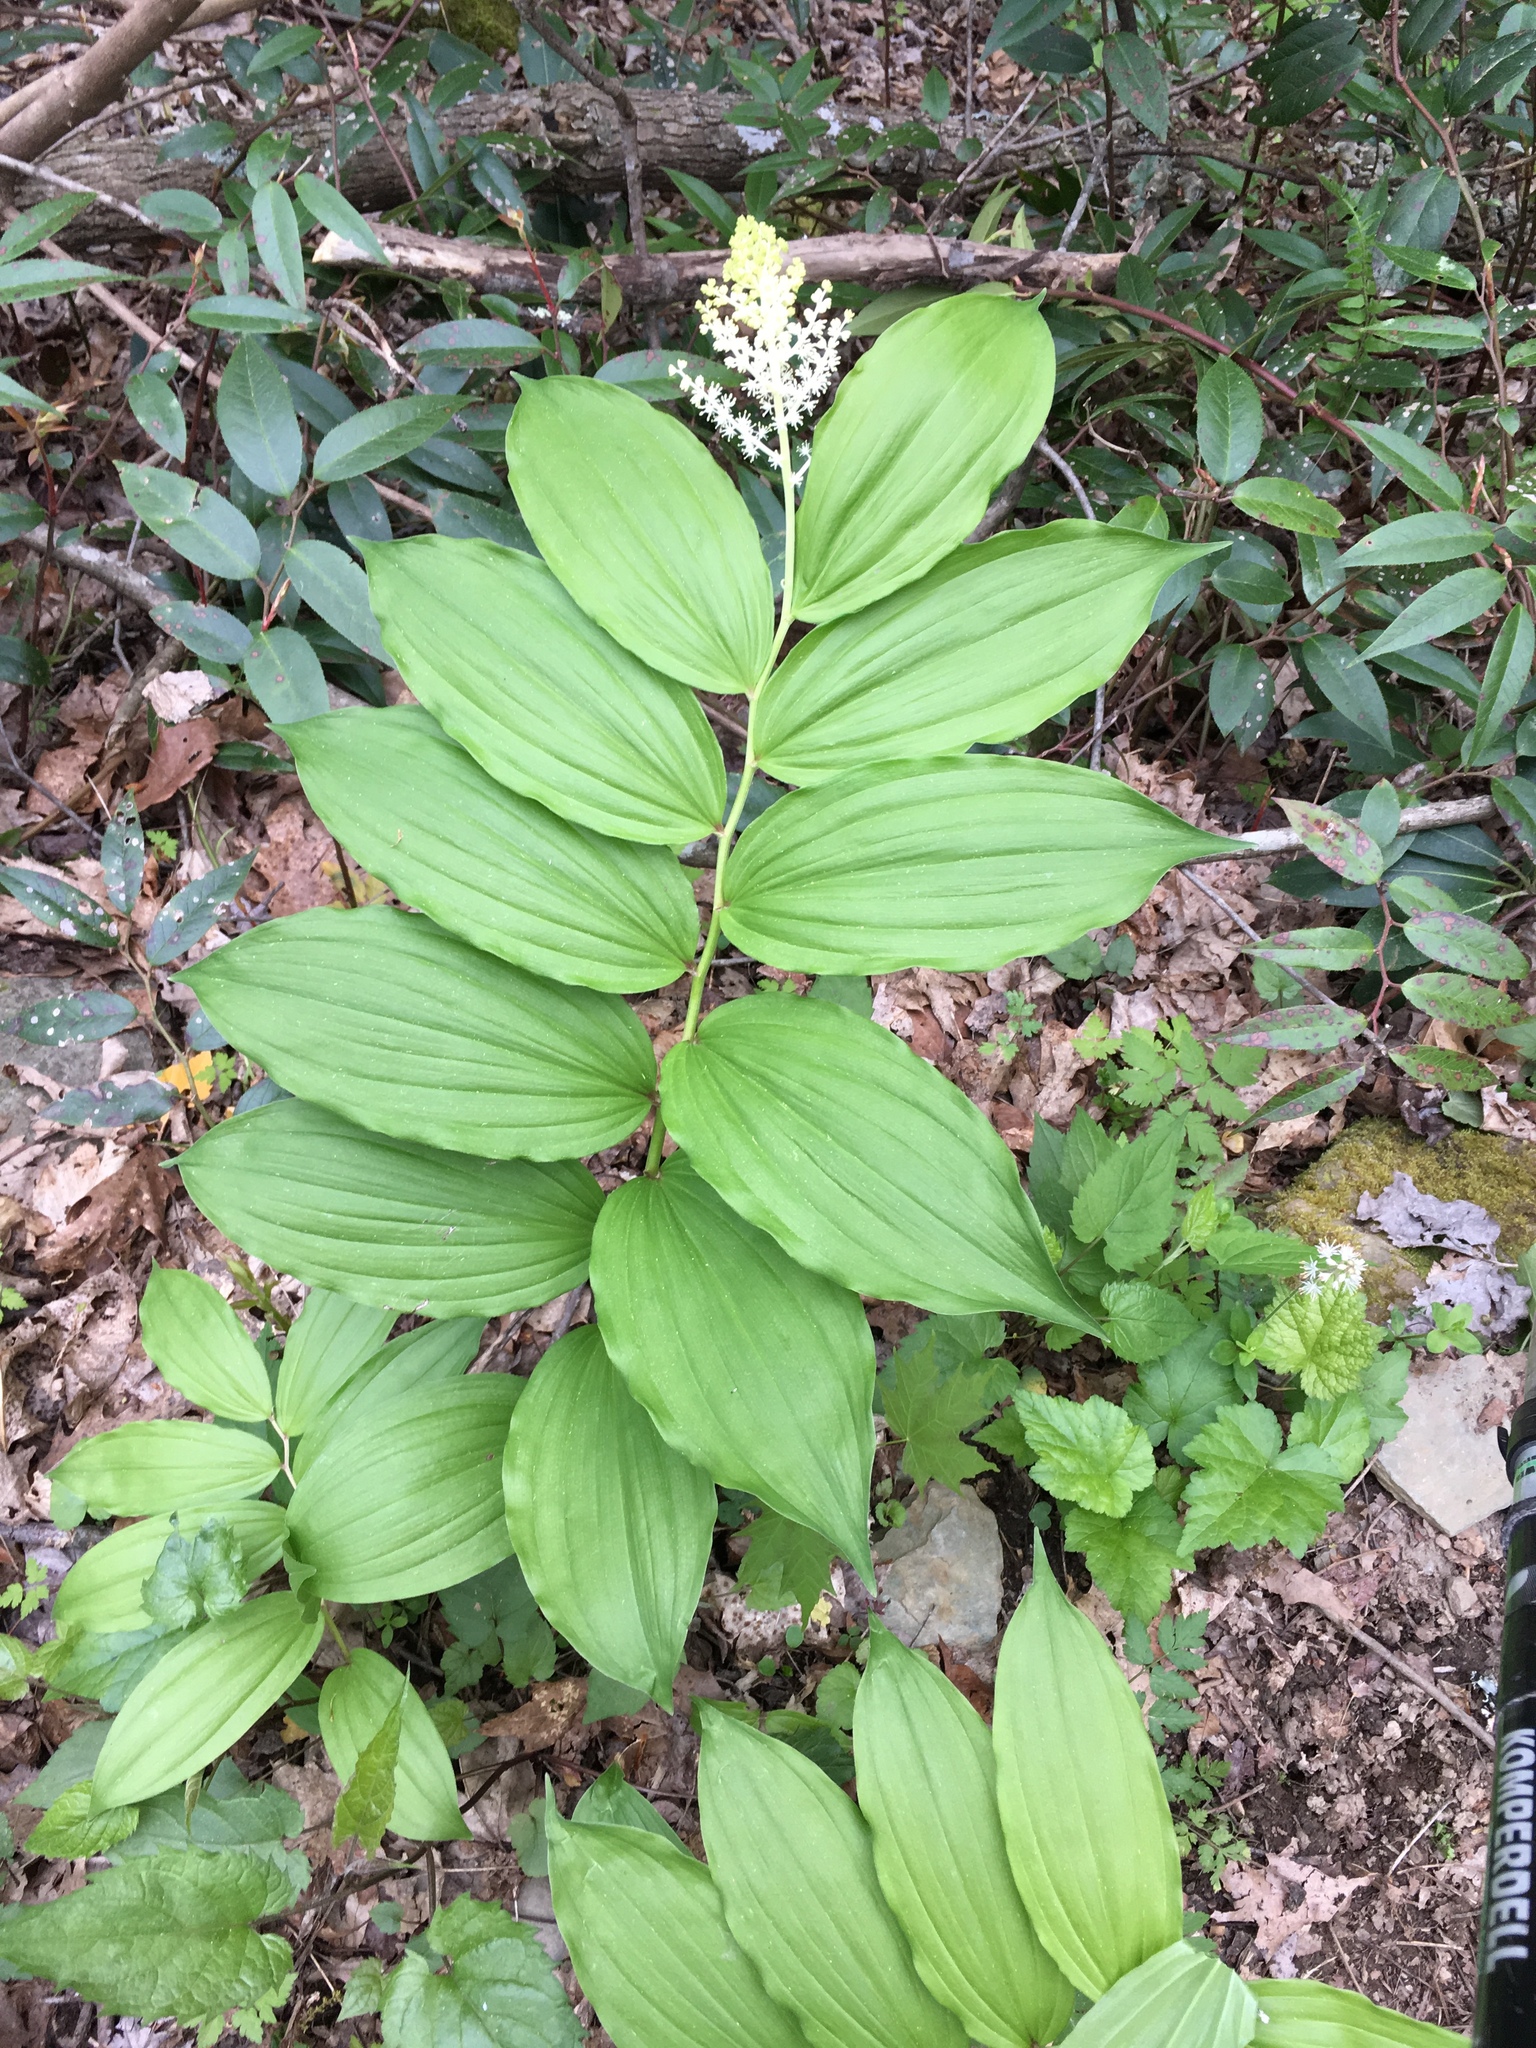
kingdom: Plantae
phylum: Tracheophyta
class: Liliopsida
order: Asparagales
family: Asparagaceae
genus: Maianthemum
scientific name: Maianthemum racemosum
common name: False spikenard
